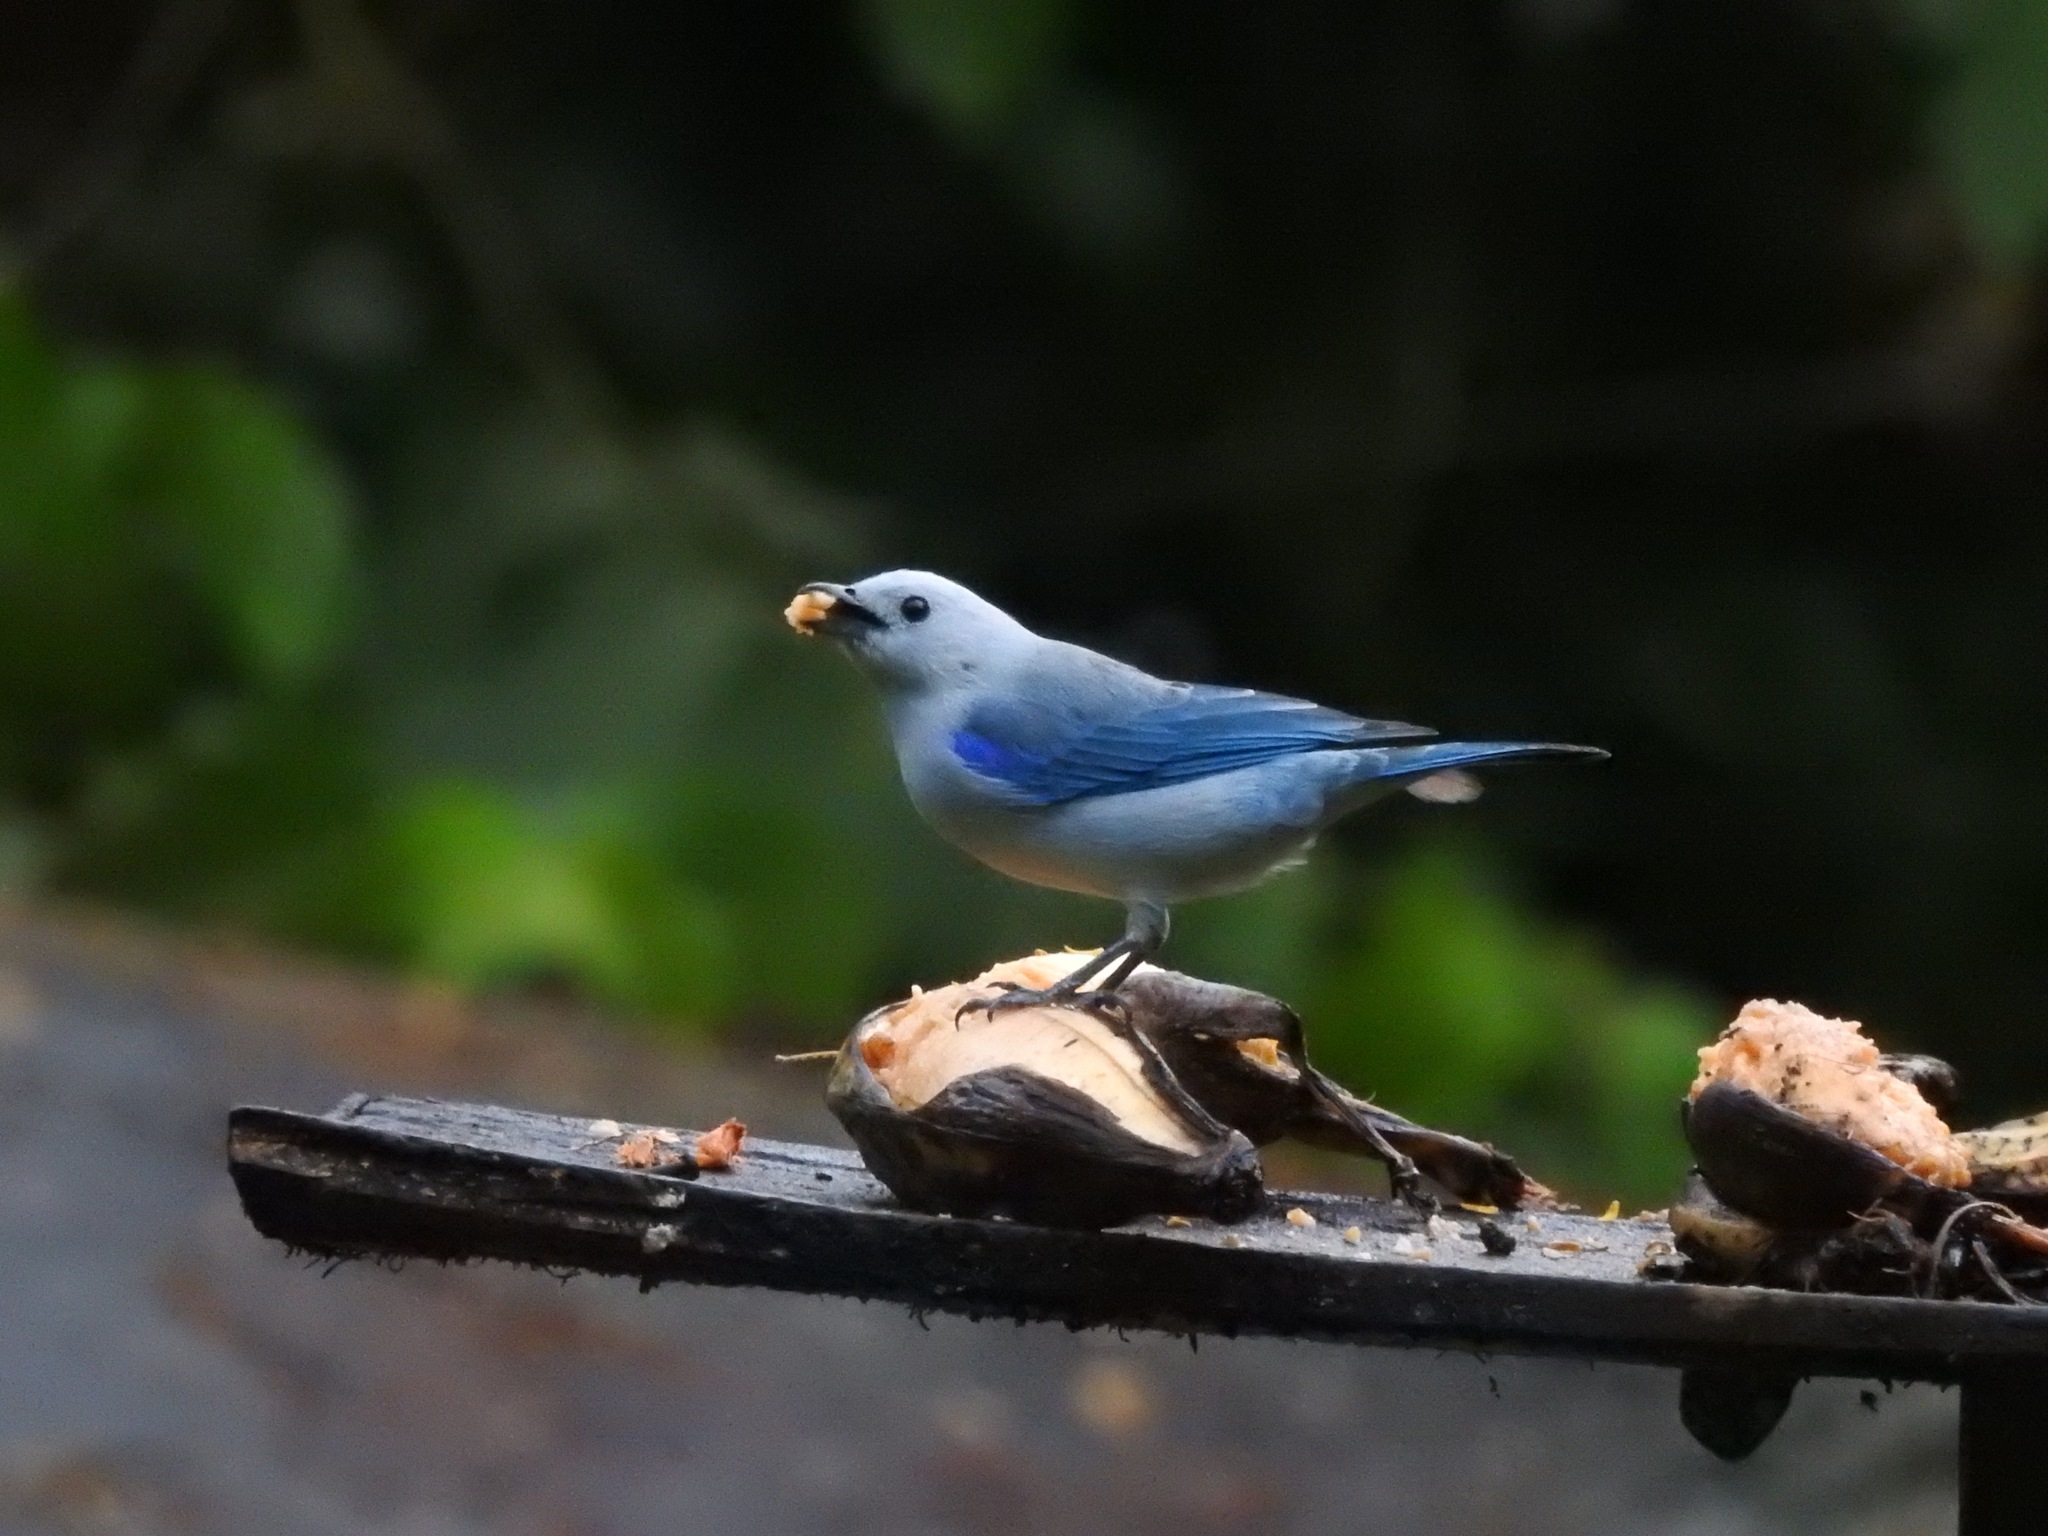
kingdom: Animalia
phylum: Chordata
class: Aves
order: Passeriformes
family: Thraupidae
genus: Thraupis
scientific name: Thraupis episcopus
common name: Blue-grey tanager
